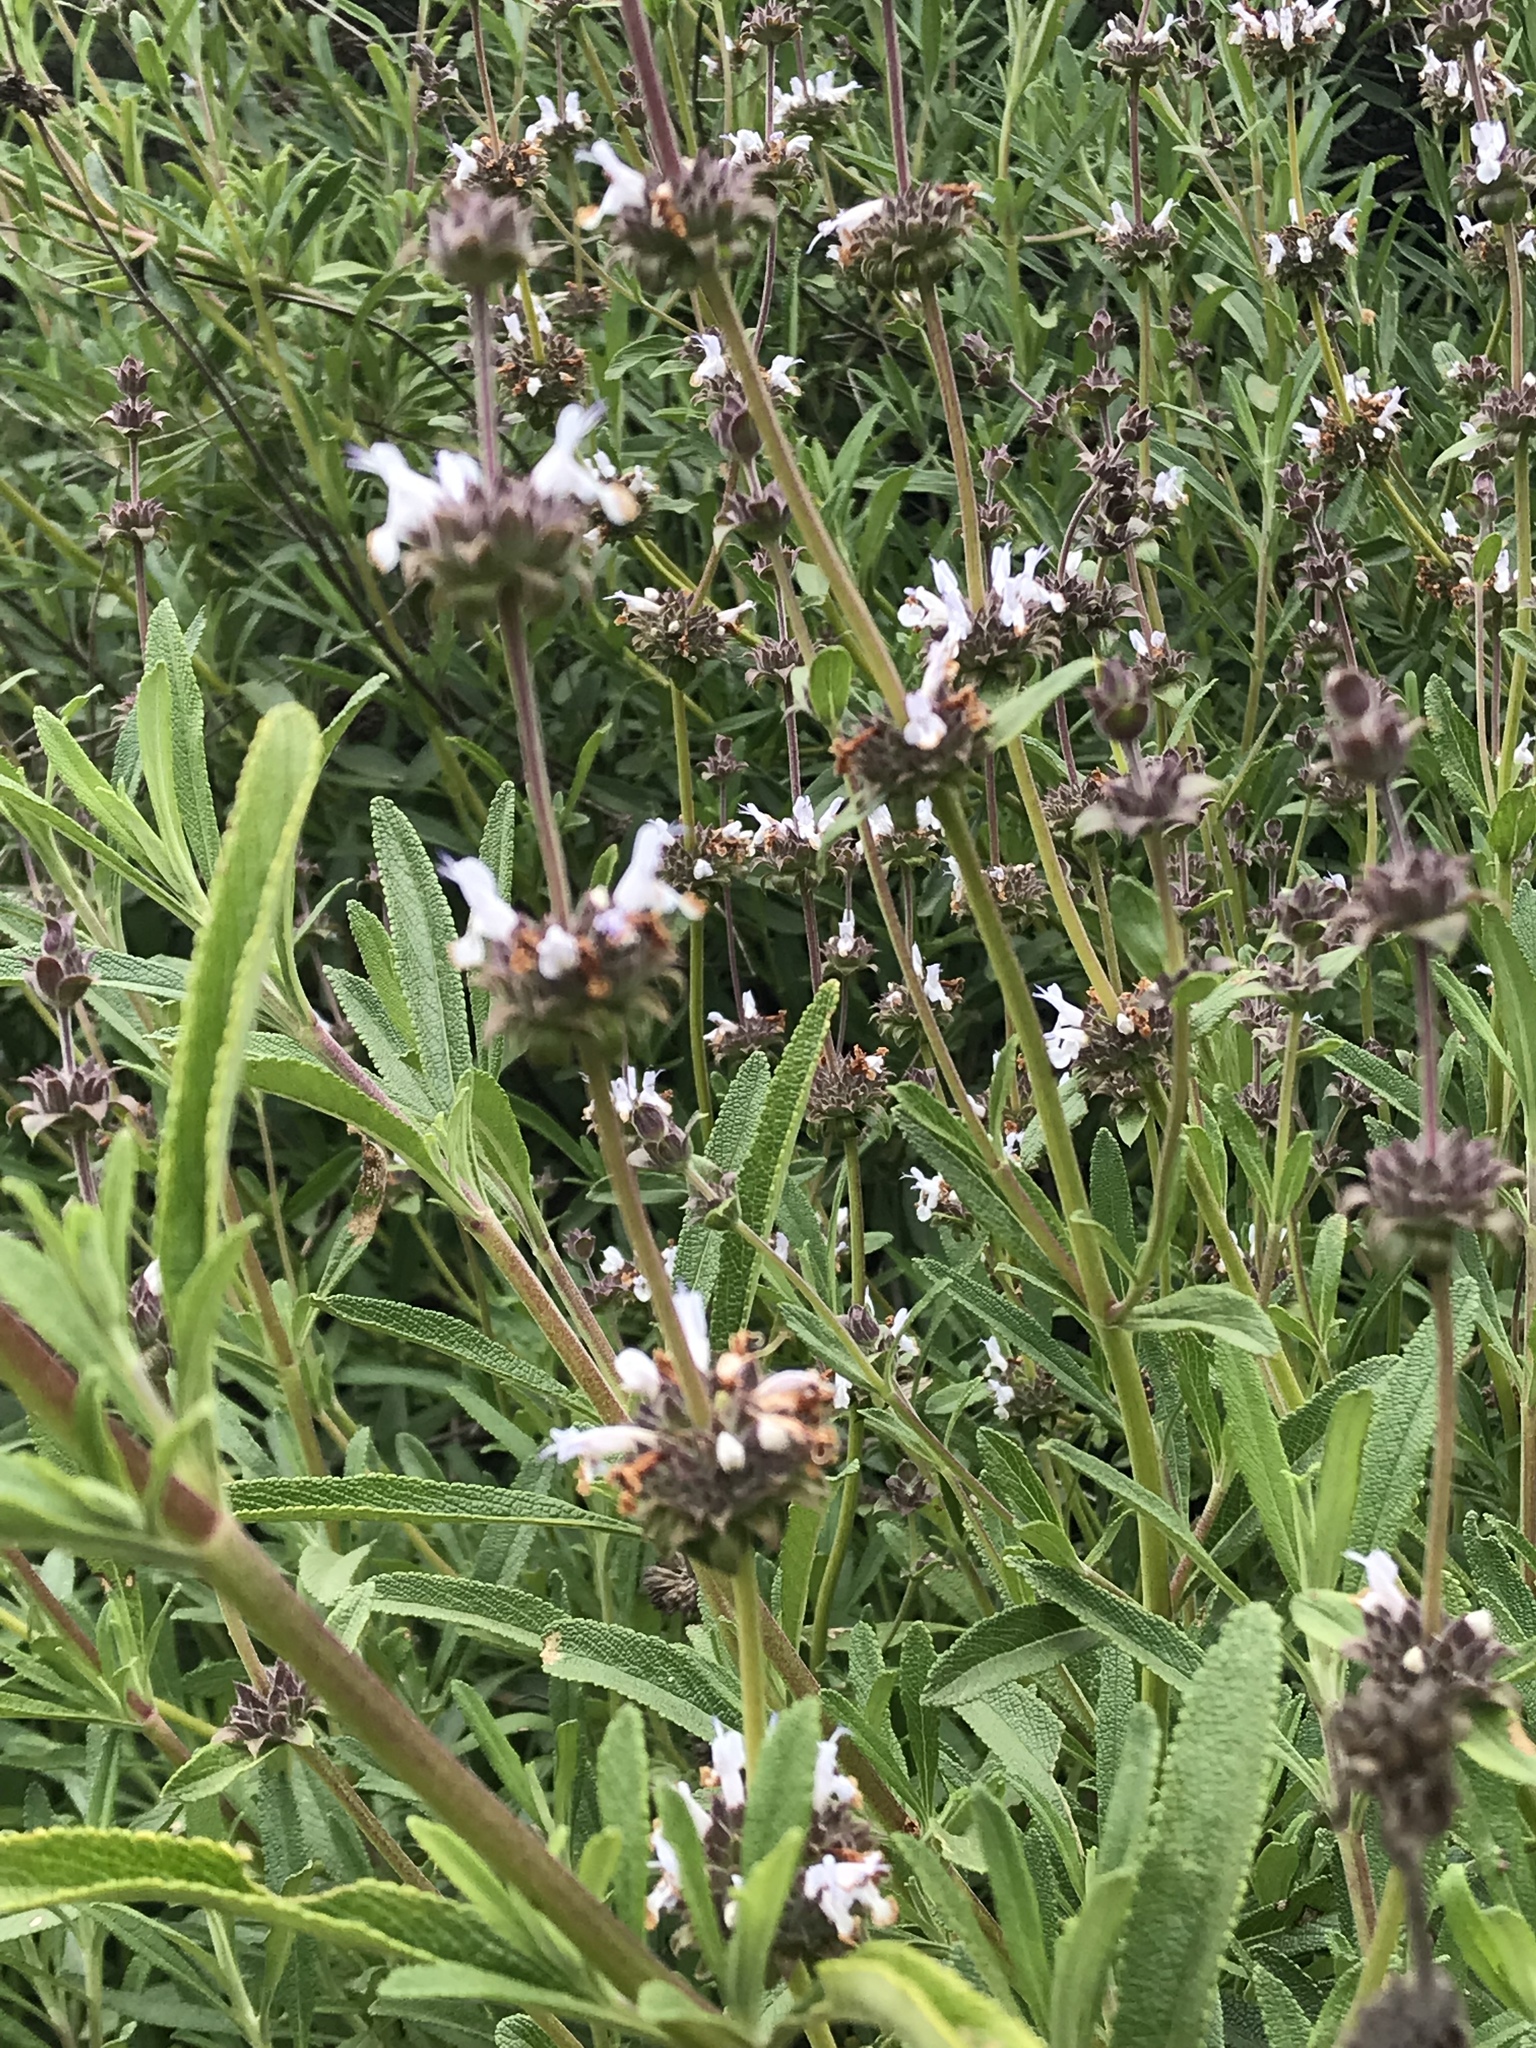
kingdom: Plantae
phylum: Tracheophyta
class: Magnoliopsida
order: Lamiales
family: Lamiaceae
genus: Salvia
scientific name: Salvia mellifera
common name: Black sage
